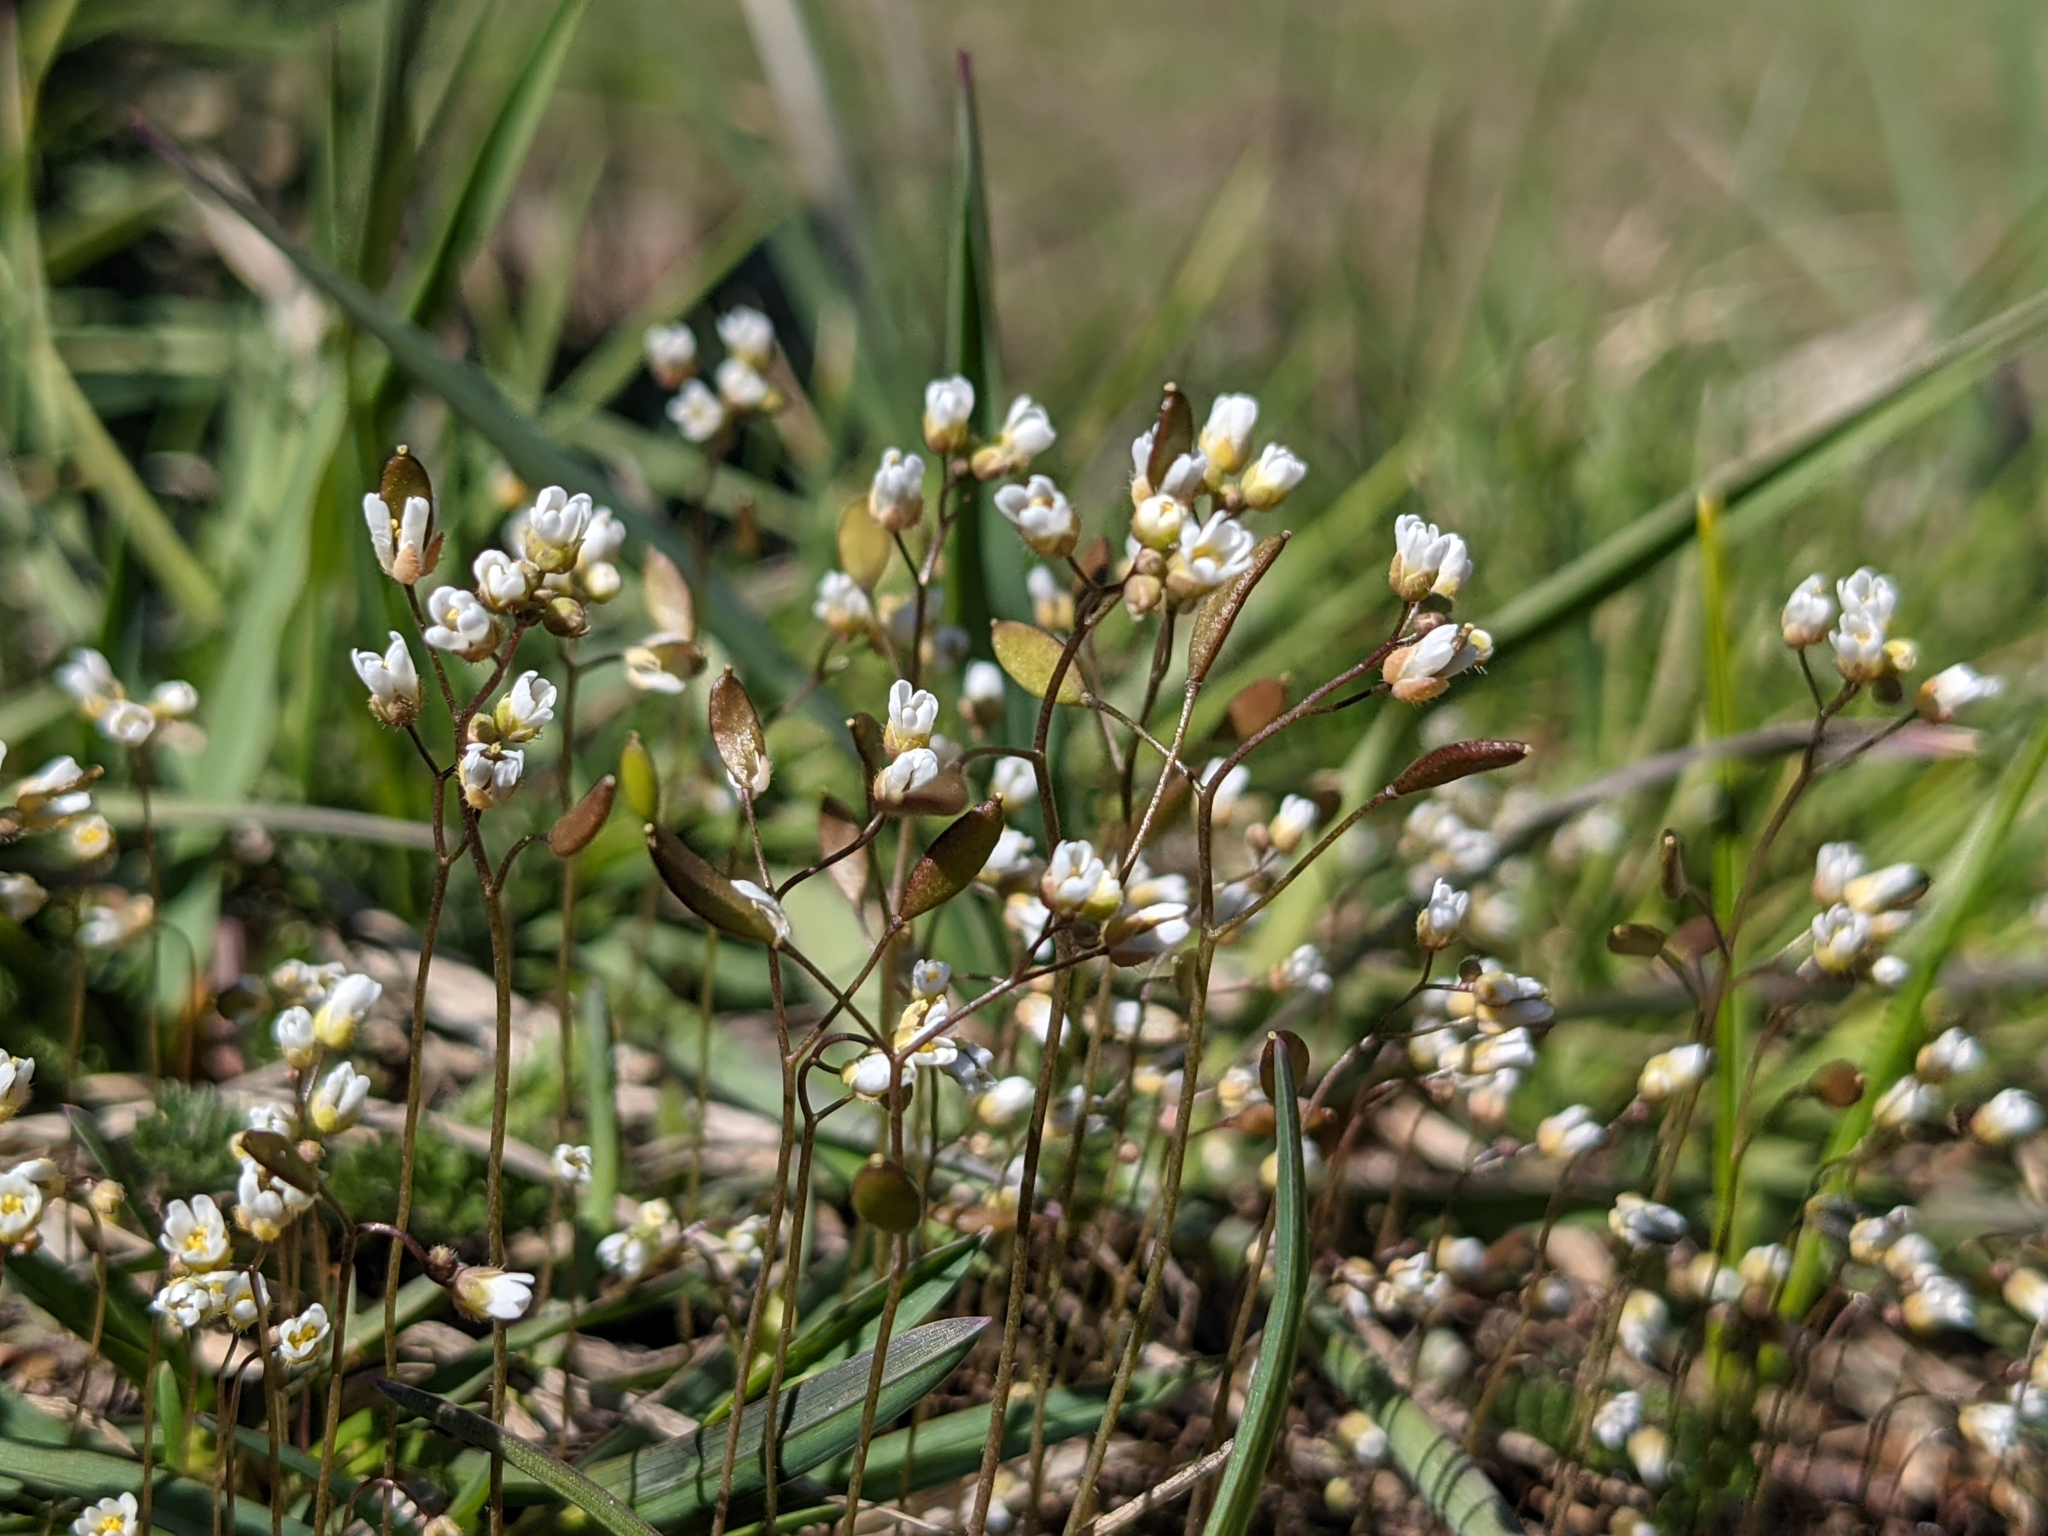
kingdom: Plantae
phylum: Tracheophyta
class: Magnoliopsida
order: Brassicales
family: Brassicaceae
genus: Draba
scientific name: Draba verna
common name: Spring draba
